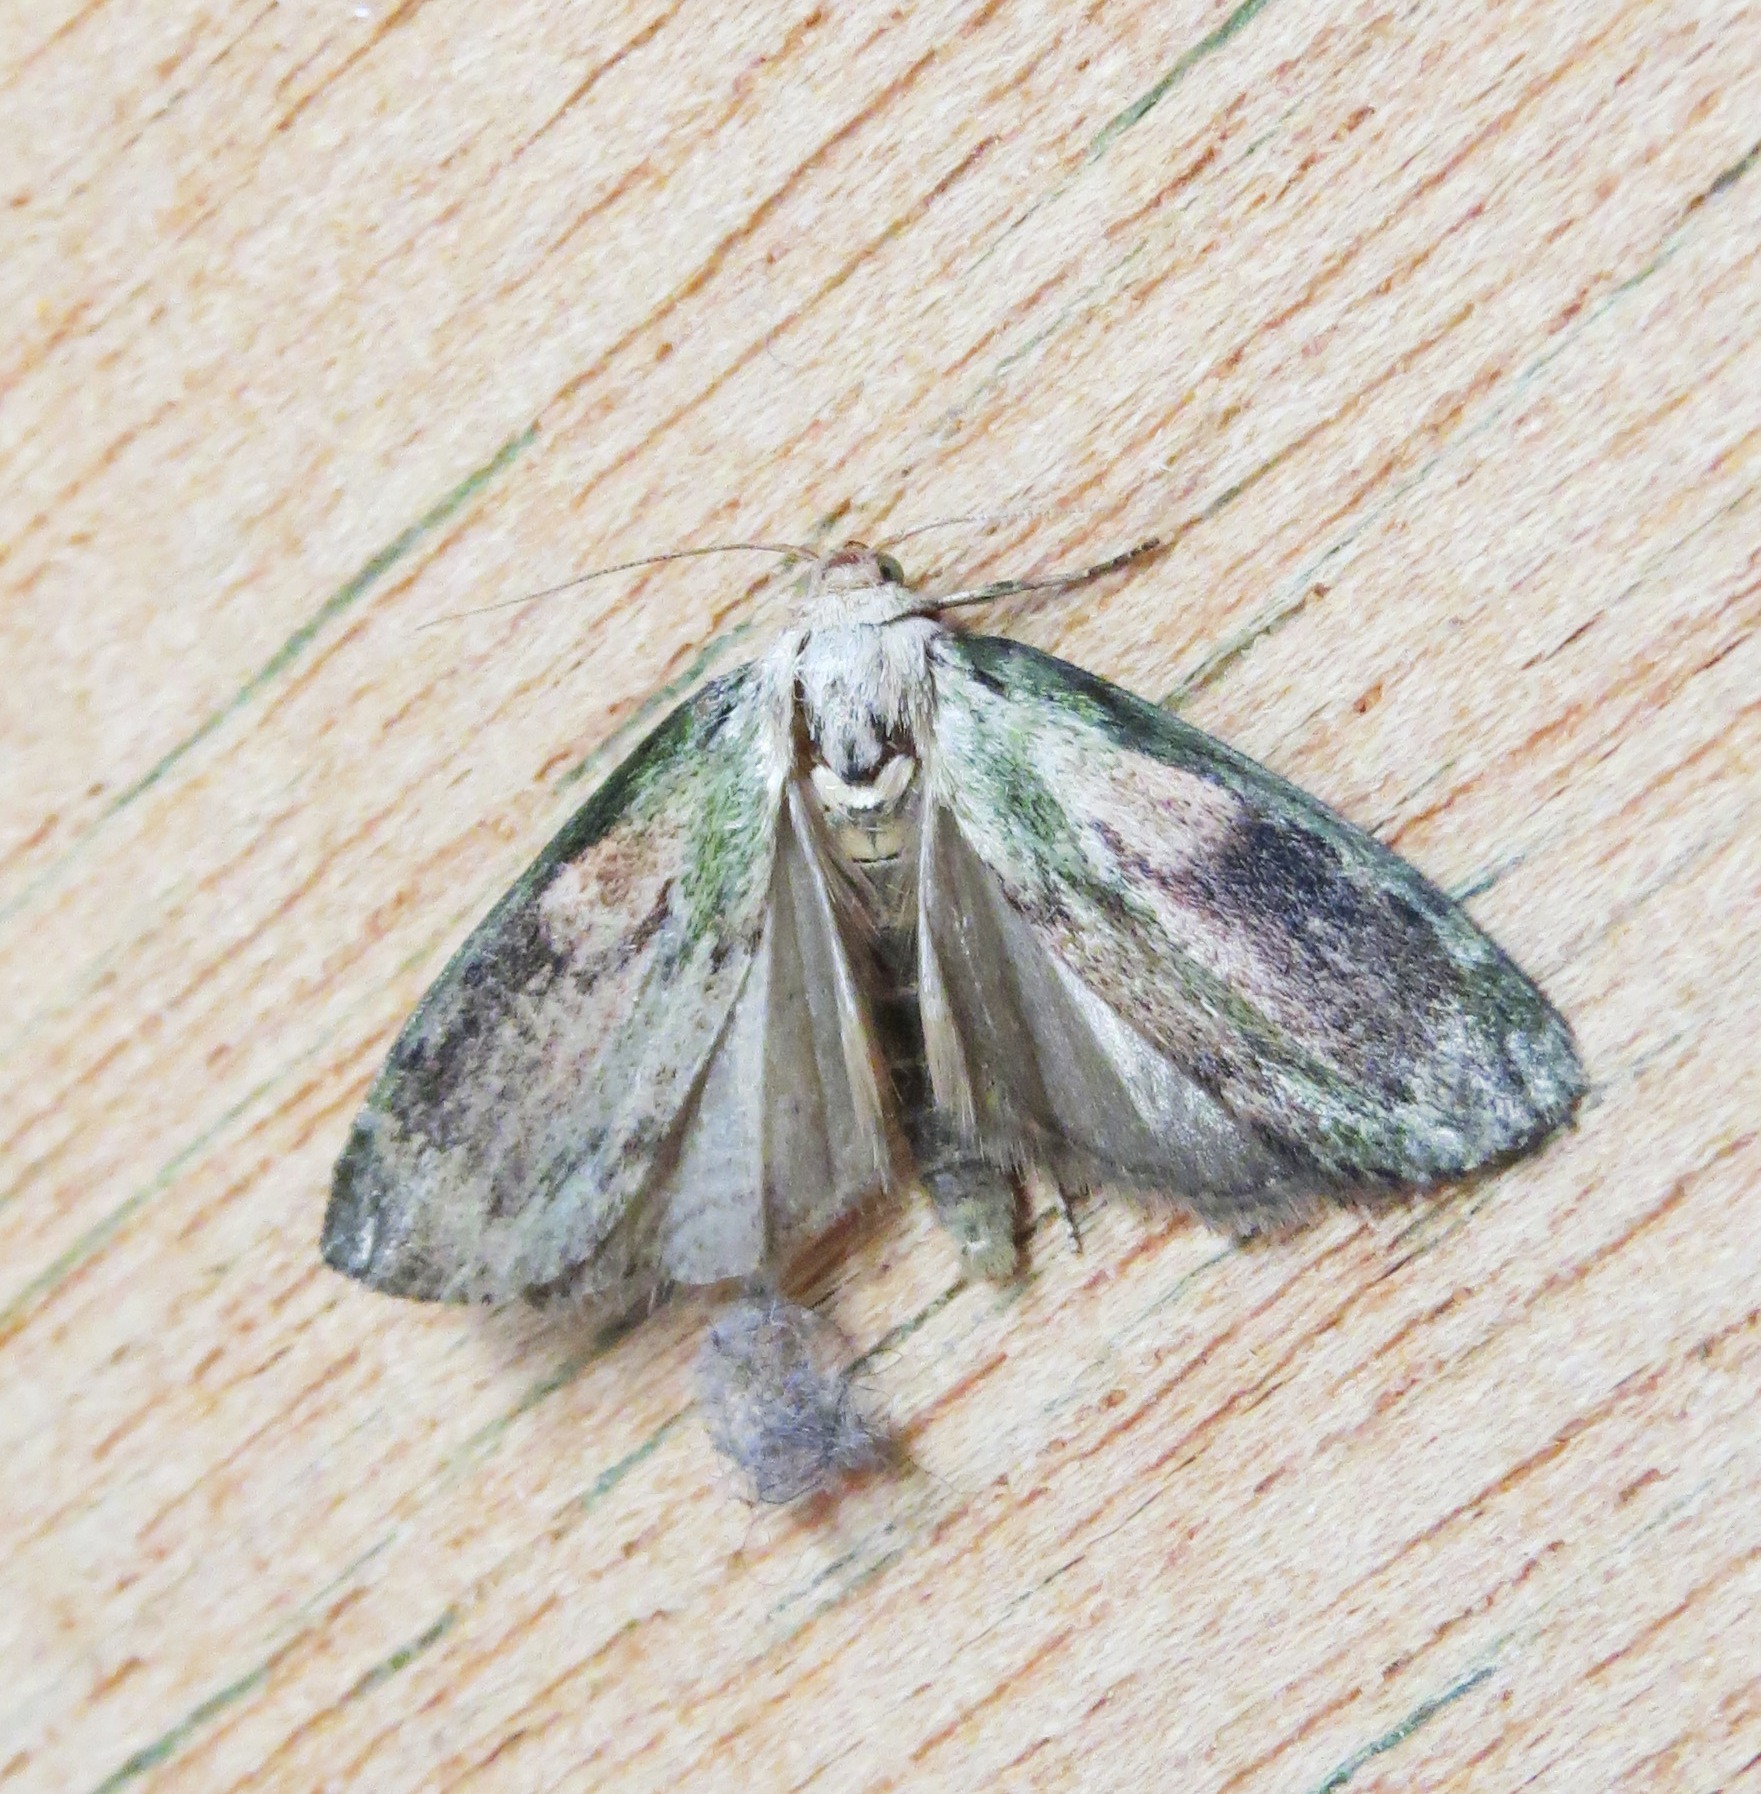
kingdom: Animalia
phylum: Arthropoda
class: Insecta
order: Lepidoptera
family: Pyralidae
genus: Aphomia
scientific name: Aphomia sociella
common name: Bee moth
